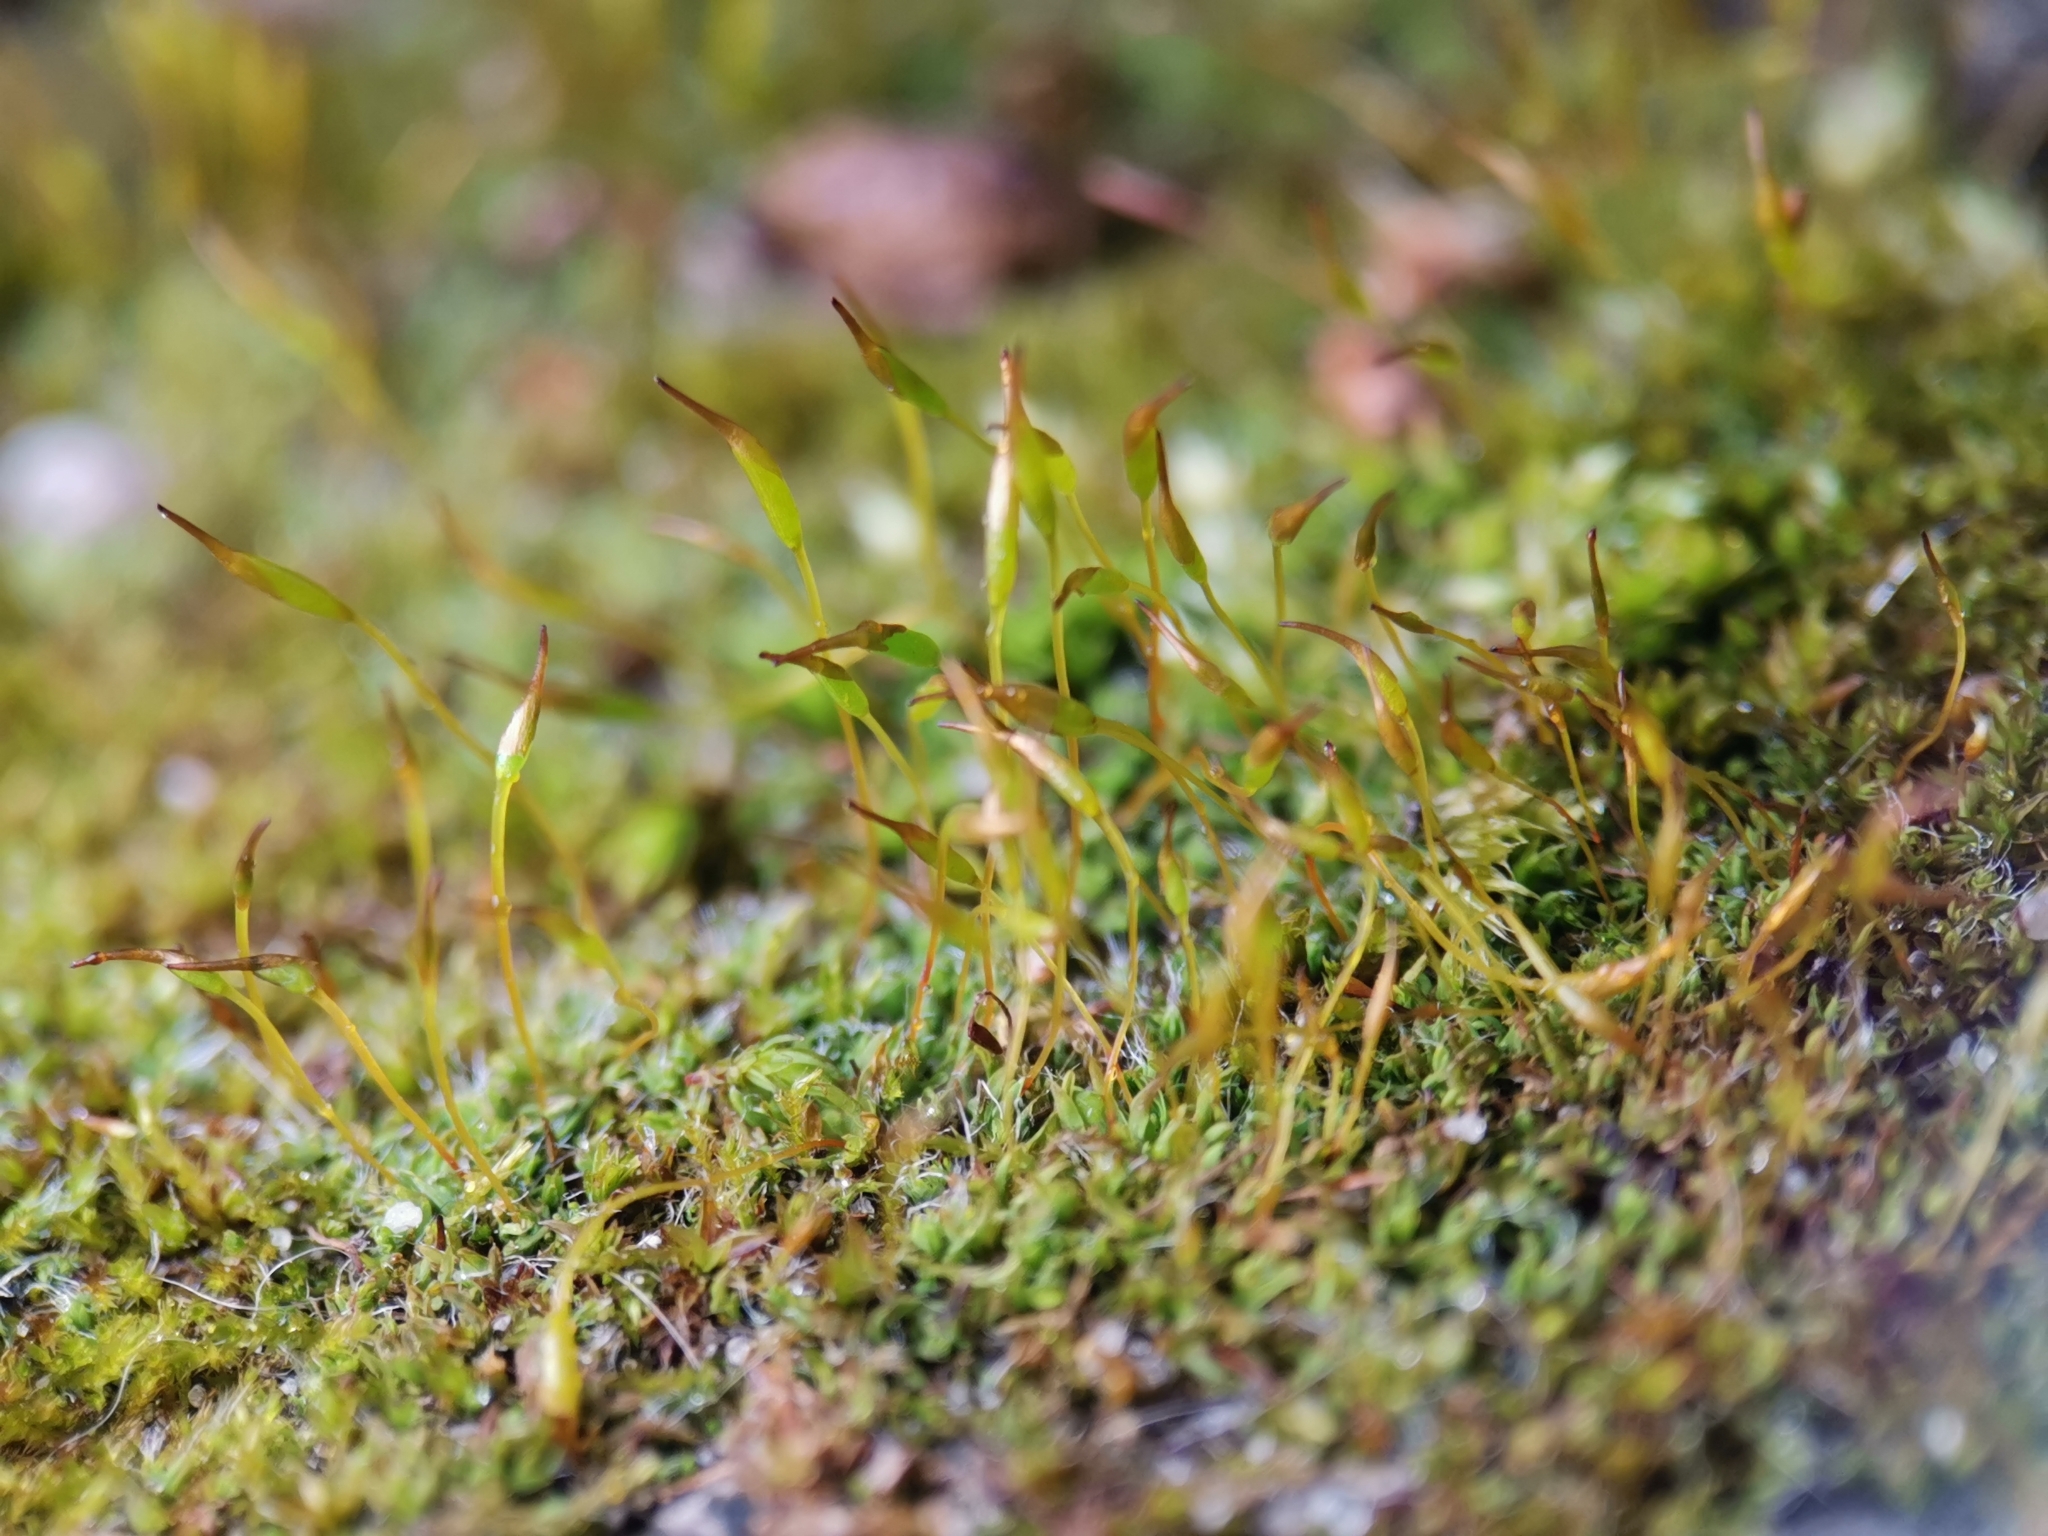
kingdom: Plantae
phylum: Bryophyta
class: Bryopsida
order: Pottiales
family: Pottiaceae
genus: Tortula
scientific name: Tortula muralis
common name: Wall screw-moss
